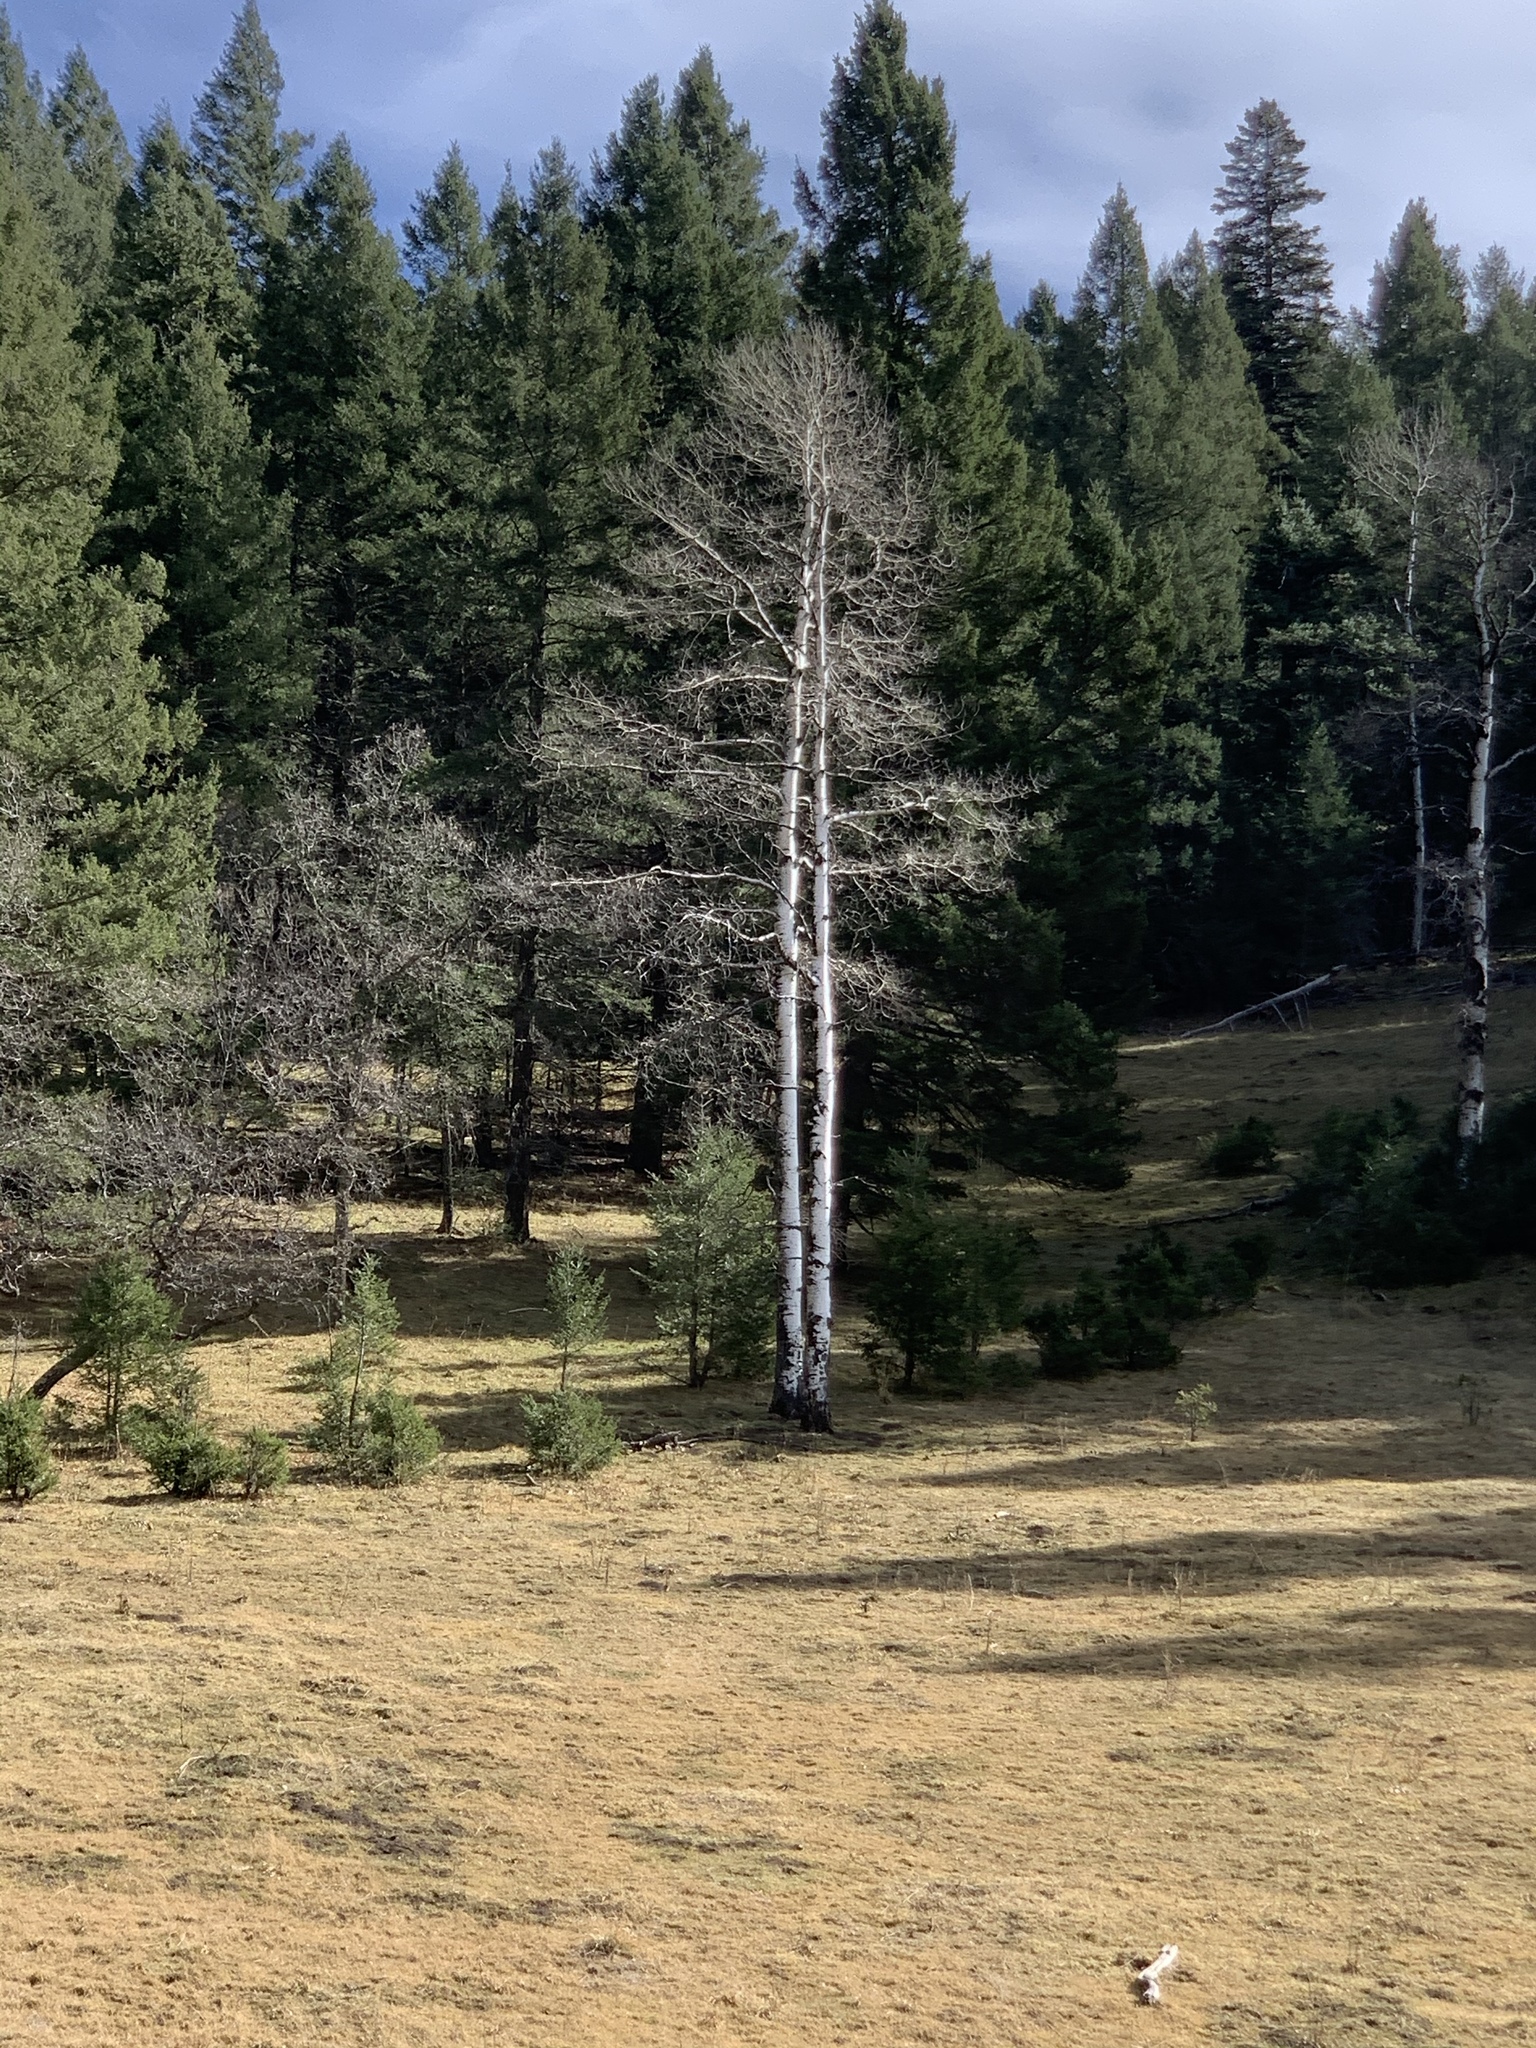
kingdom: Plantae
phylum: Tracheophyta
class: Magnoliopsida
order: Malpighiales
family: Salicaceae
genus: Populus
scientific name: Populus tremuloides
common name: Quaking aspen
